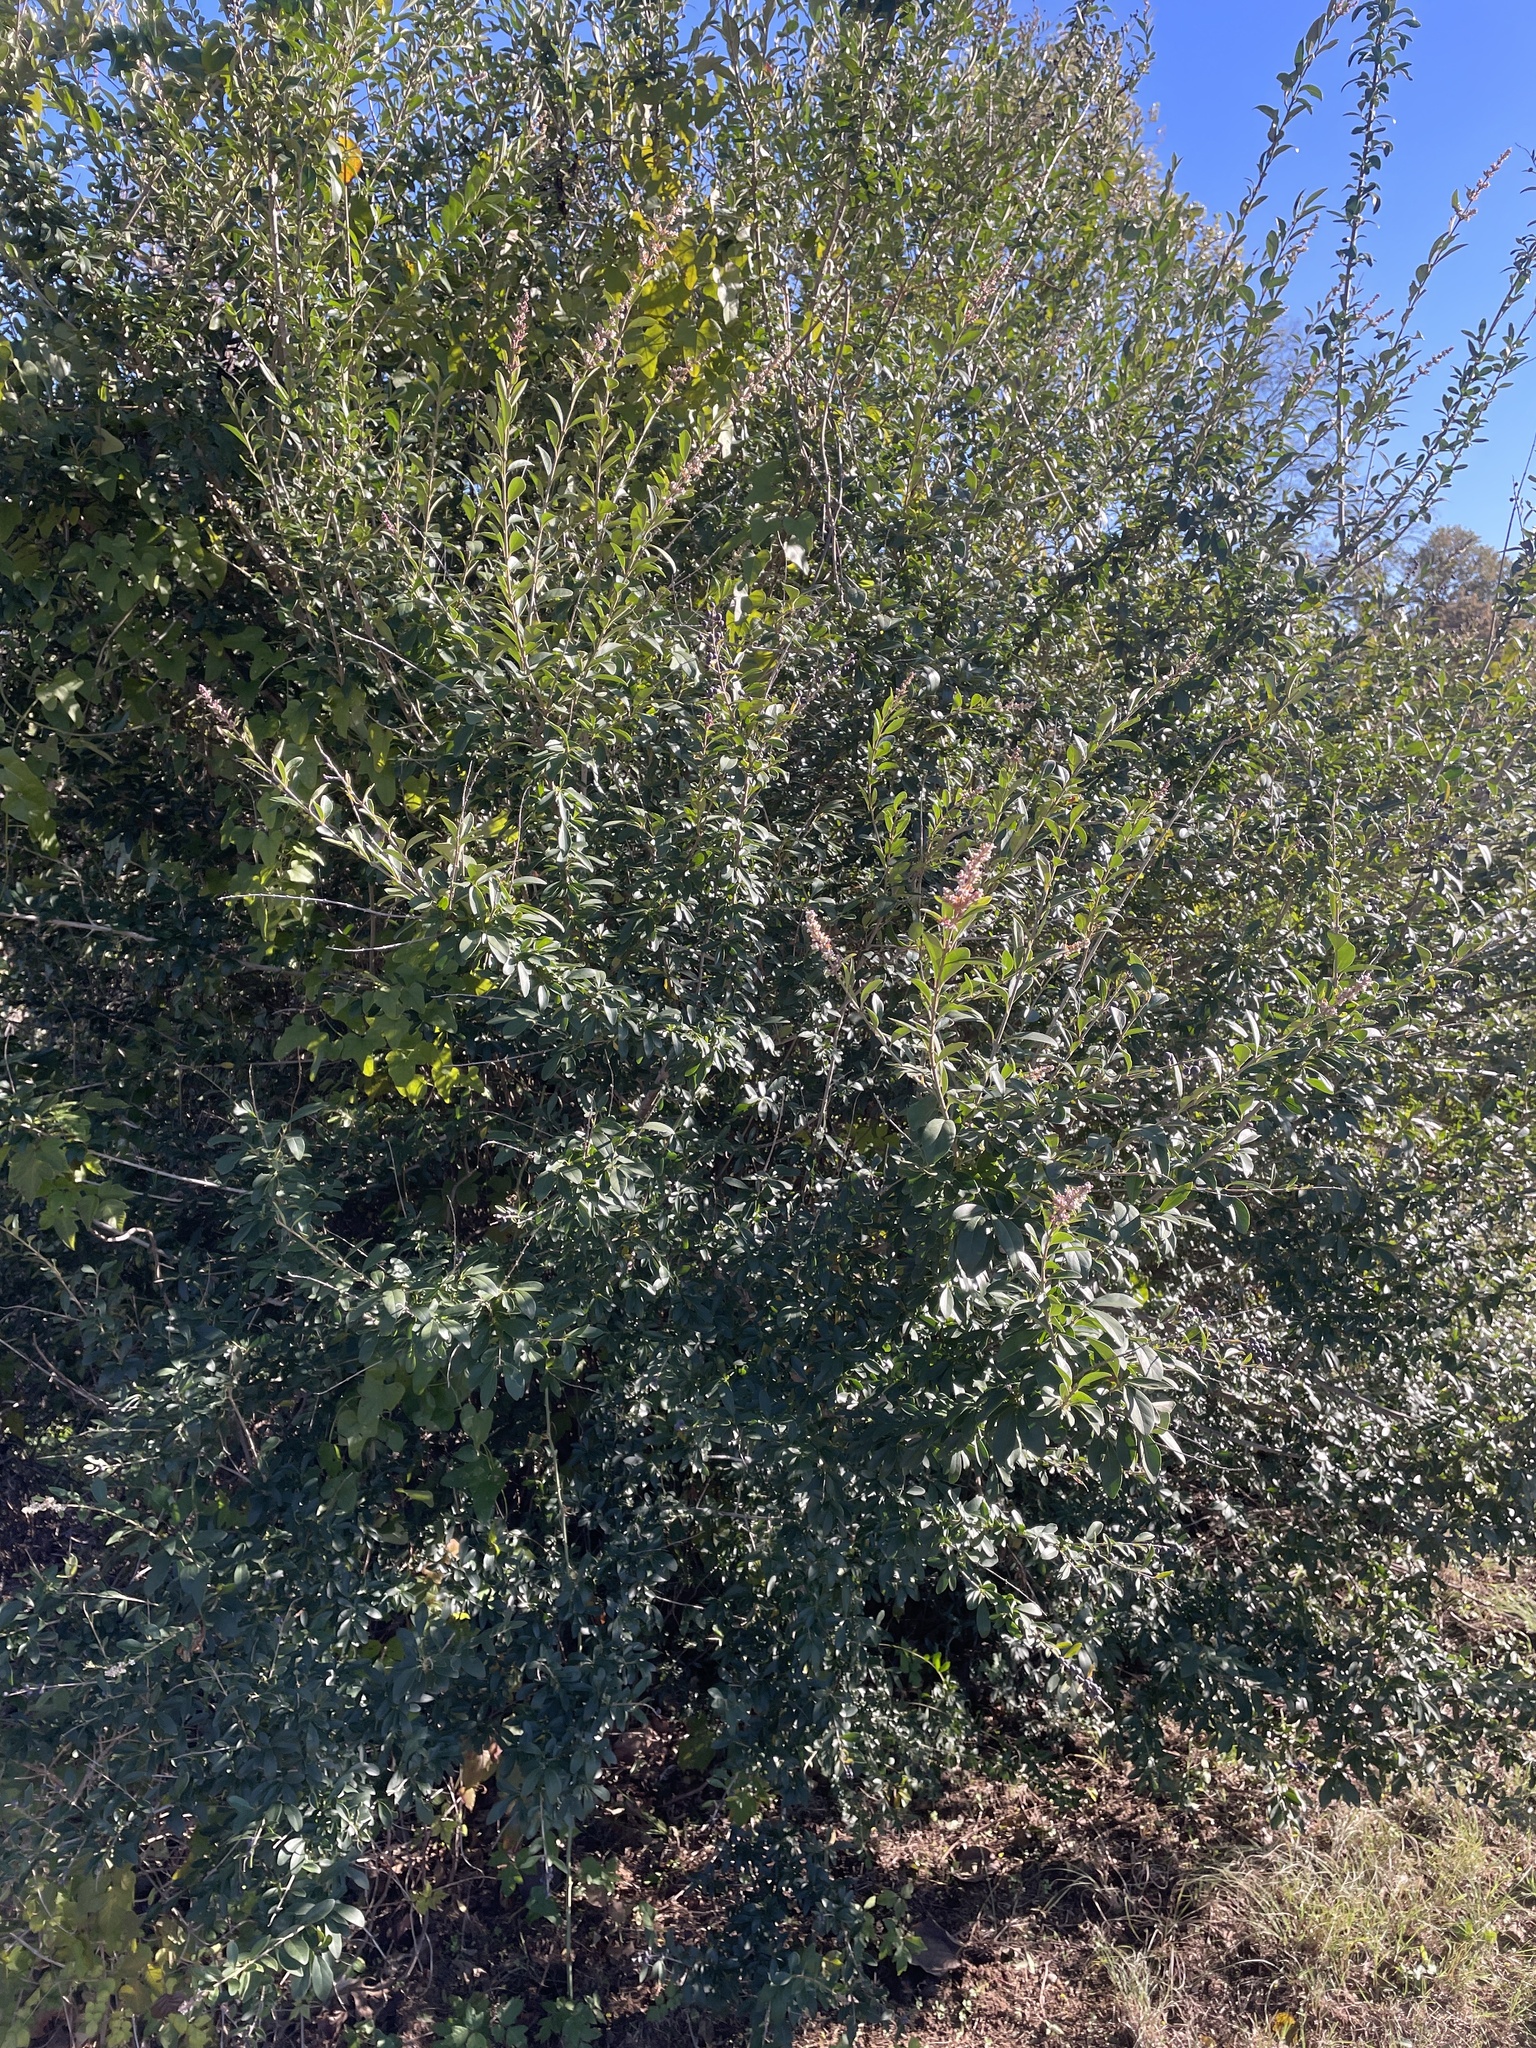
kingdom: Plantae
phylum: Tracheophyta
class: Magnoliopsida
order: Lamiales
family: Oleaceae
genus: Ligustrum
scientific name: Ligustrum quihoui
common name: Waxyleaf privet
